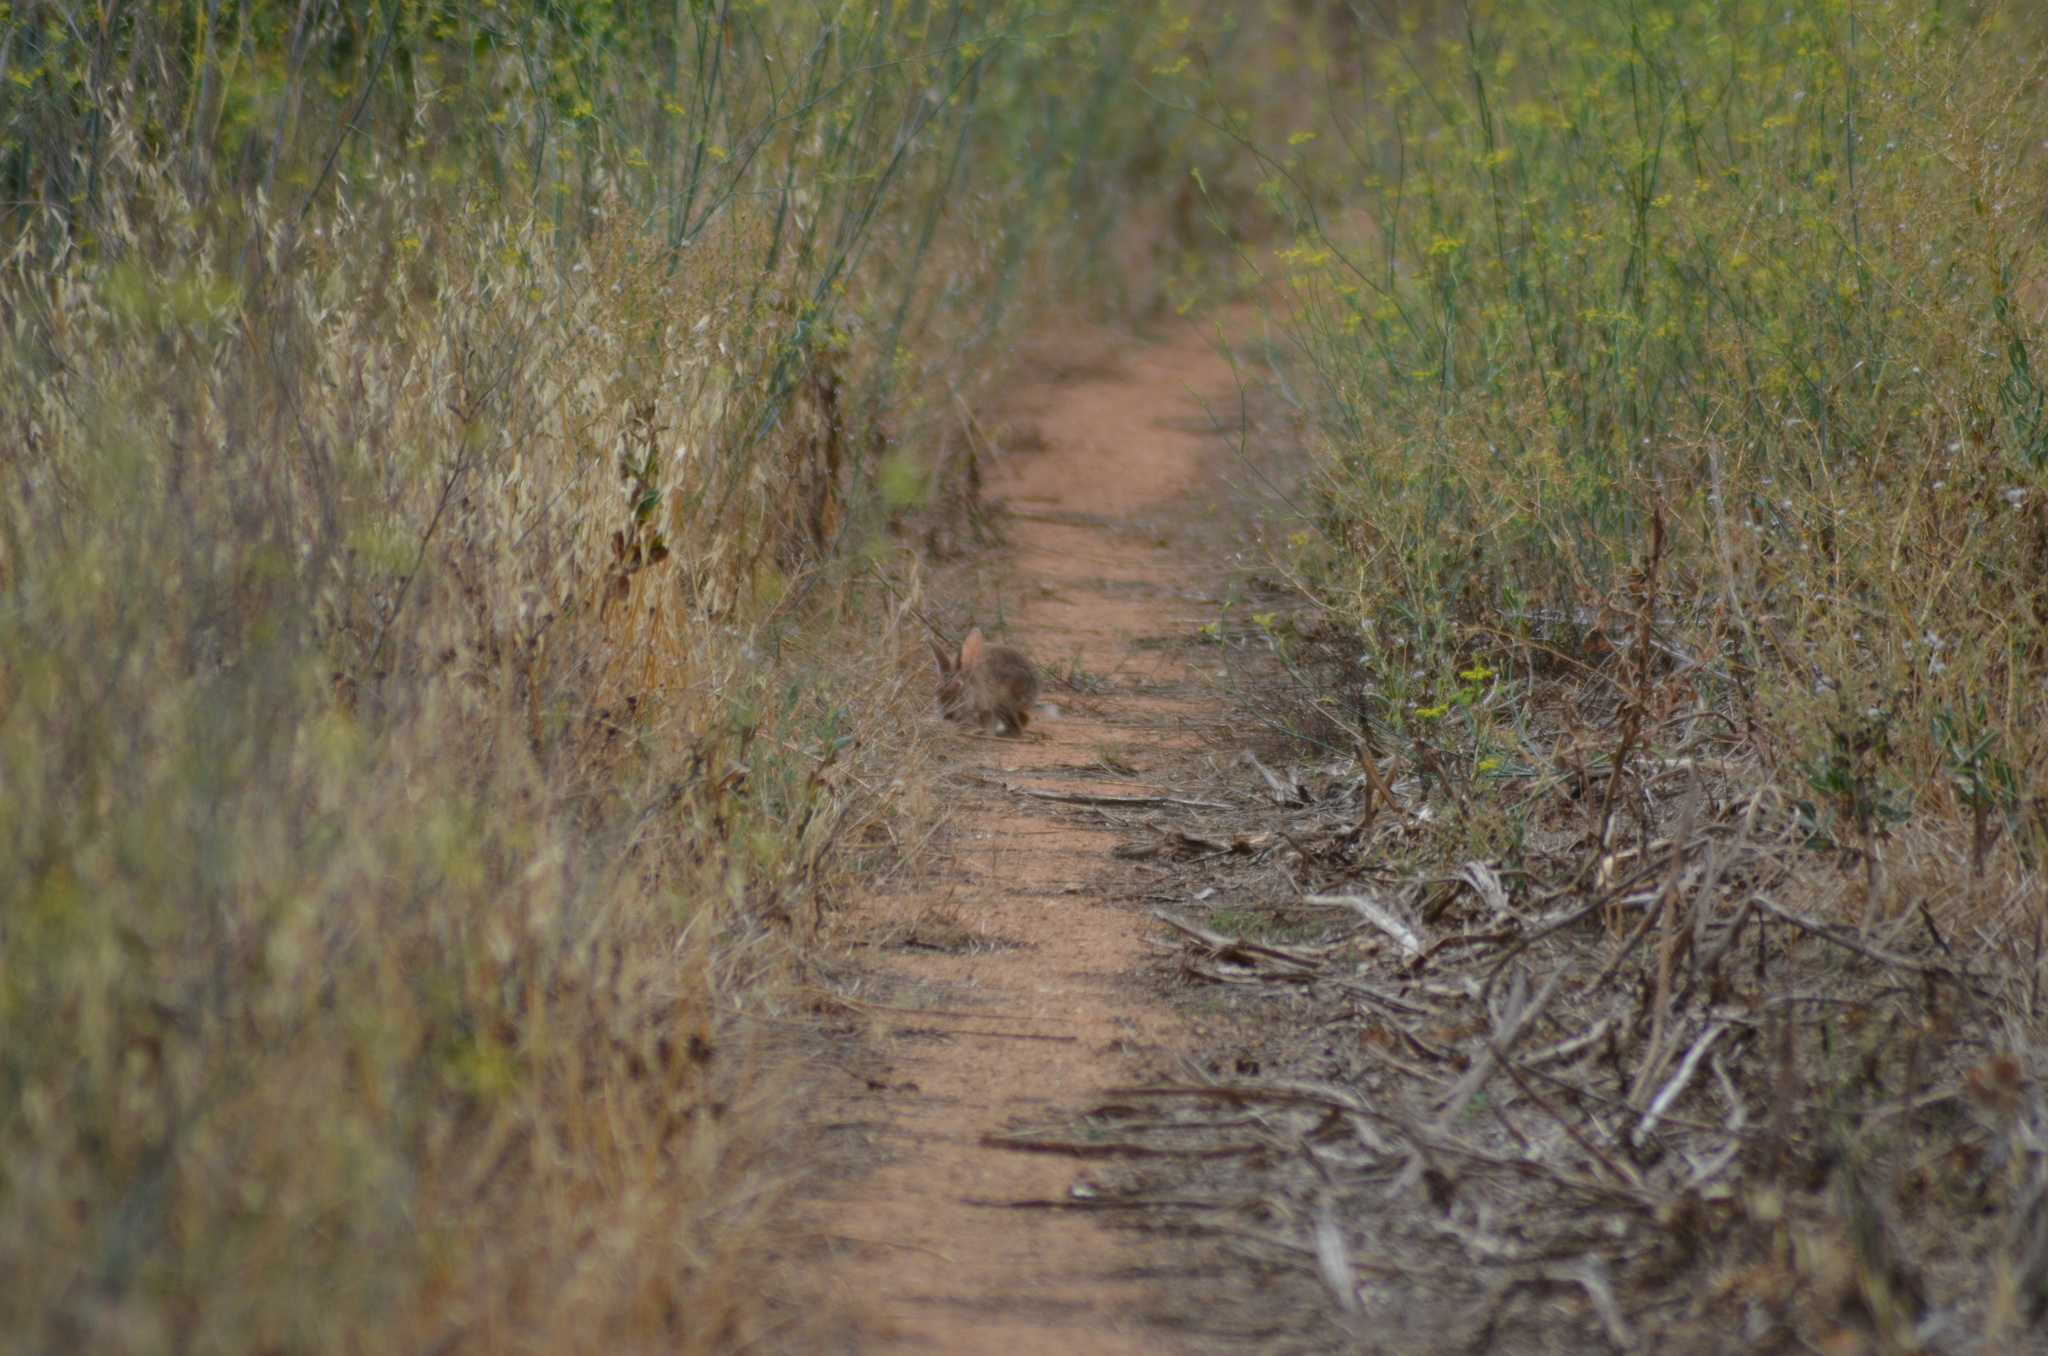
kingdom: Animalia
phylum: Chordata
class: Mammalia
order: Lagomorpha
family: Leporidae
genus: Oryctolagus
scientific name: Oryctolagus cuniculus
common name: European rabbit
